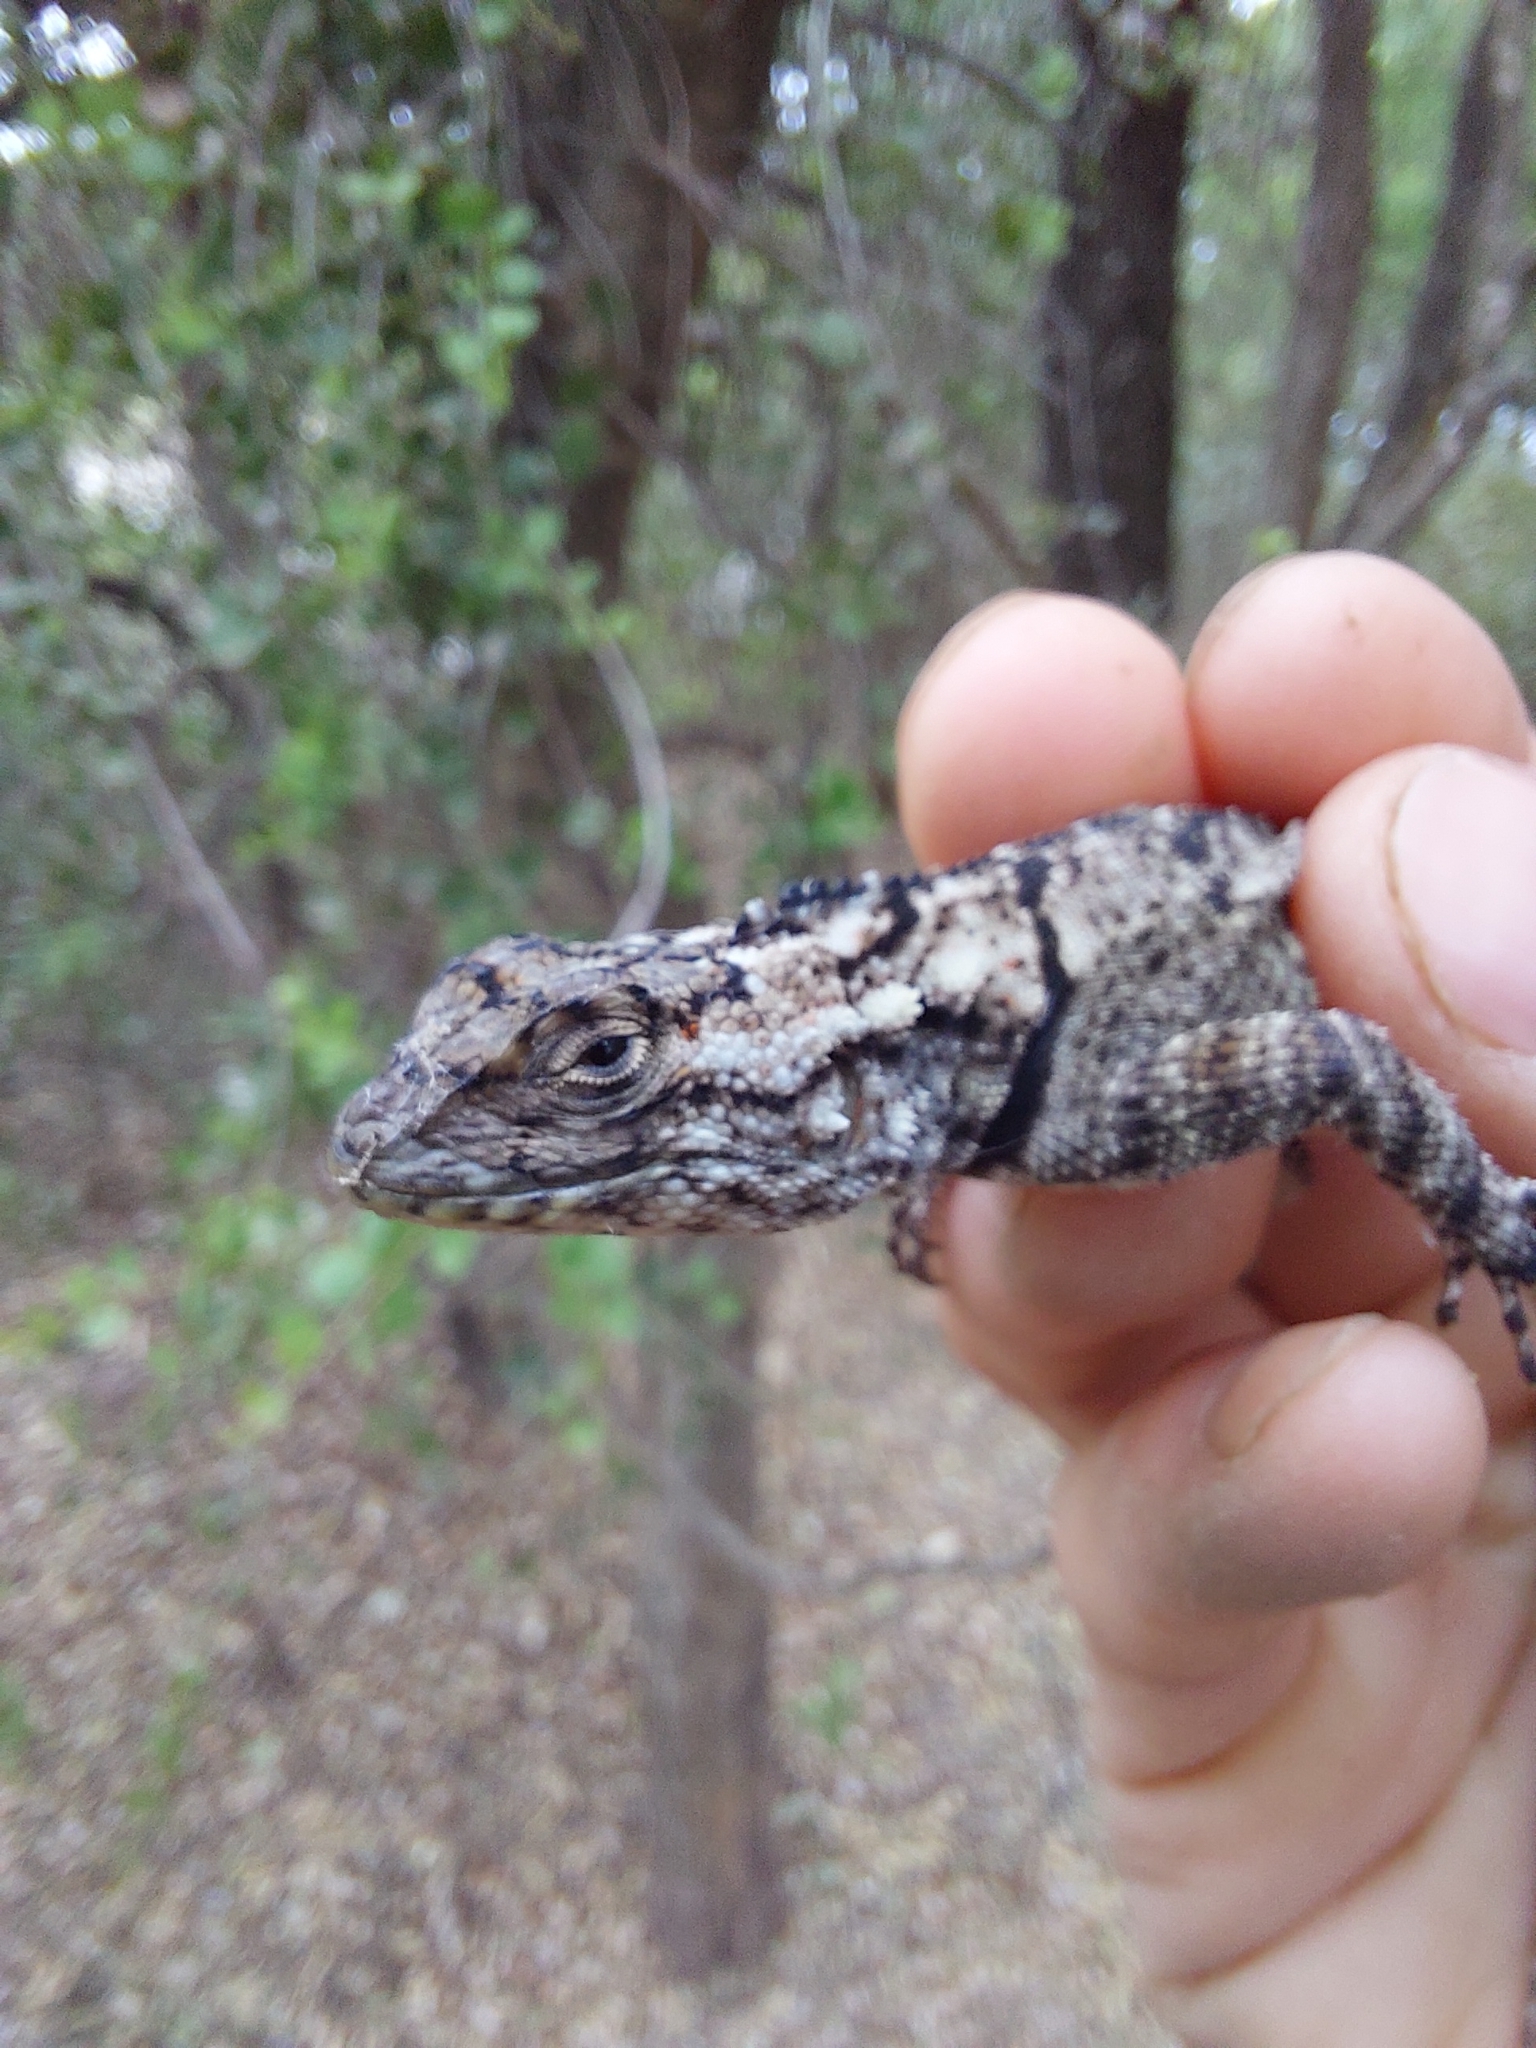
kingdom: Animalia
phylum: Chordata
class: Squamata
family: Tropiduridae
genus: Tropidurus
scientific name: Tropidurus spinulosus
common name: Spiny lava lizard
